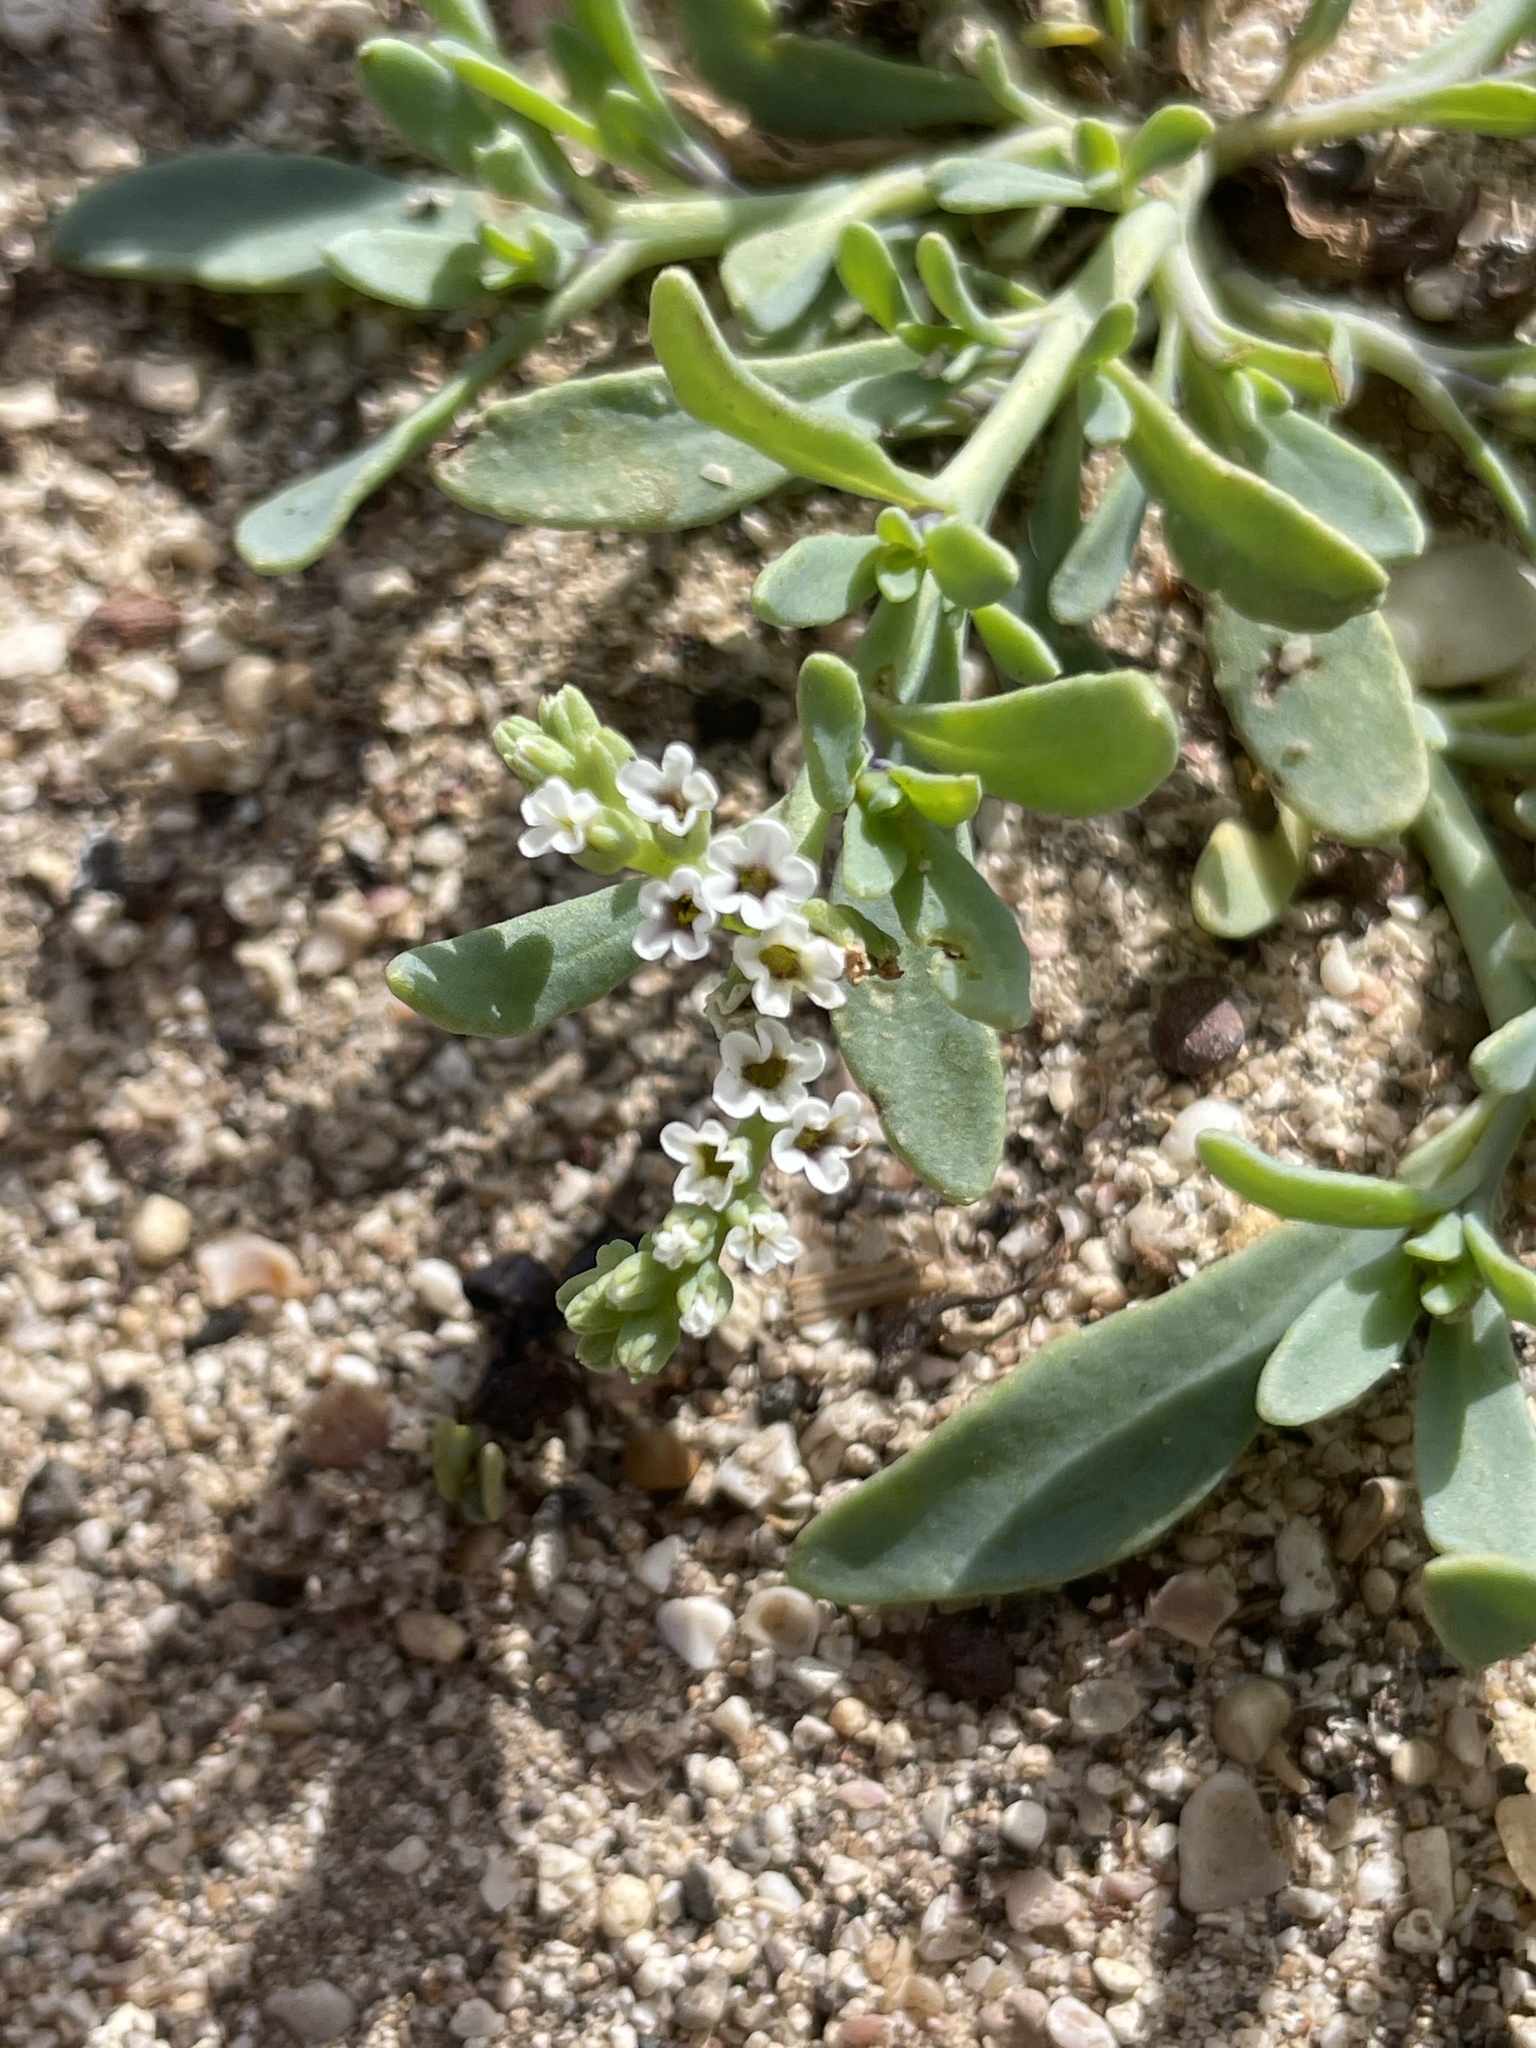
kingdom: Plantae
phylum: Tracheophyta
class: Magnoliopsida
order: Boraginales
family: Heliotropiaceae
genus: Heliotropium
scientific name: Heliotropium curassavicum
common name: Seaside heliotrope
